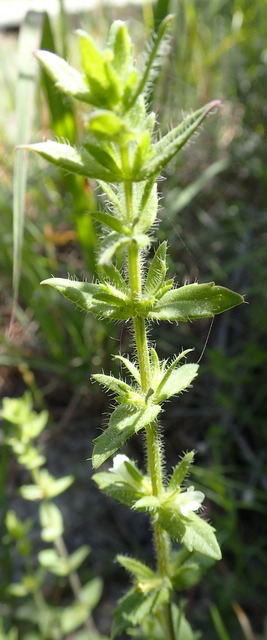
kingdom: Plantae
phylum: Tracheophyta
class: Magnoliopsida
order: Lamiales
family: Plantaginaceae
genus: Gratiola
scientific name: Gratiola pilosa
